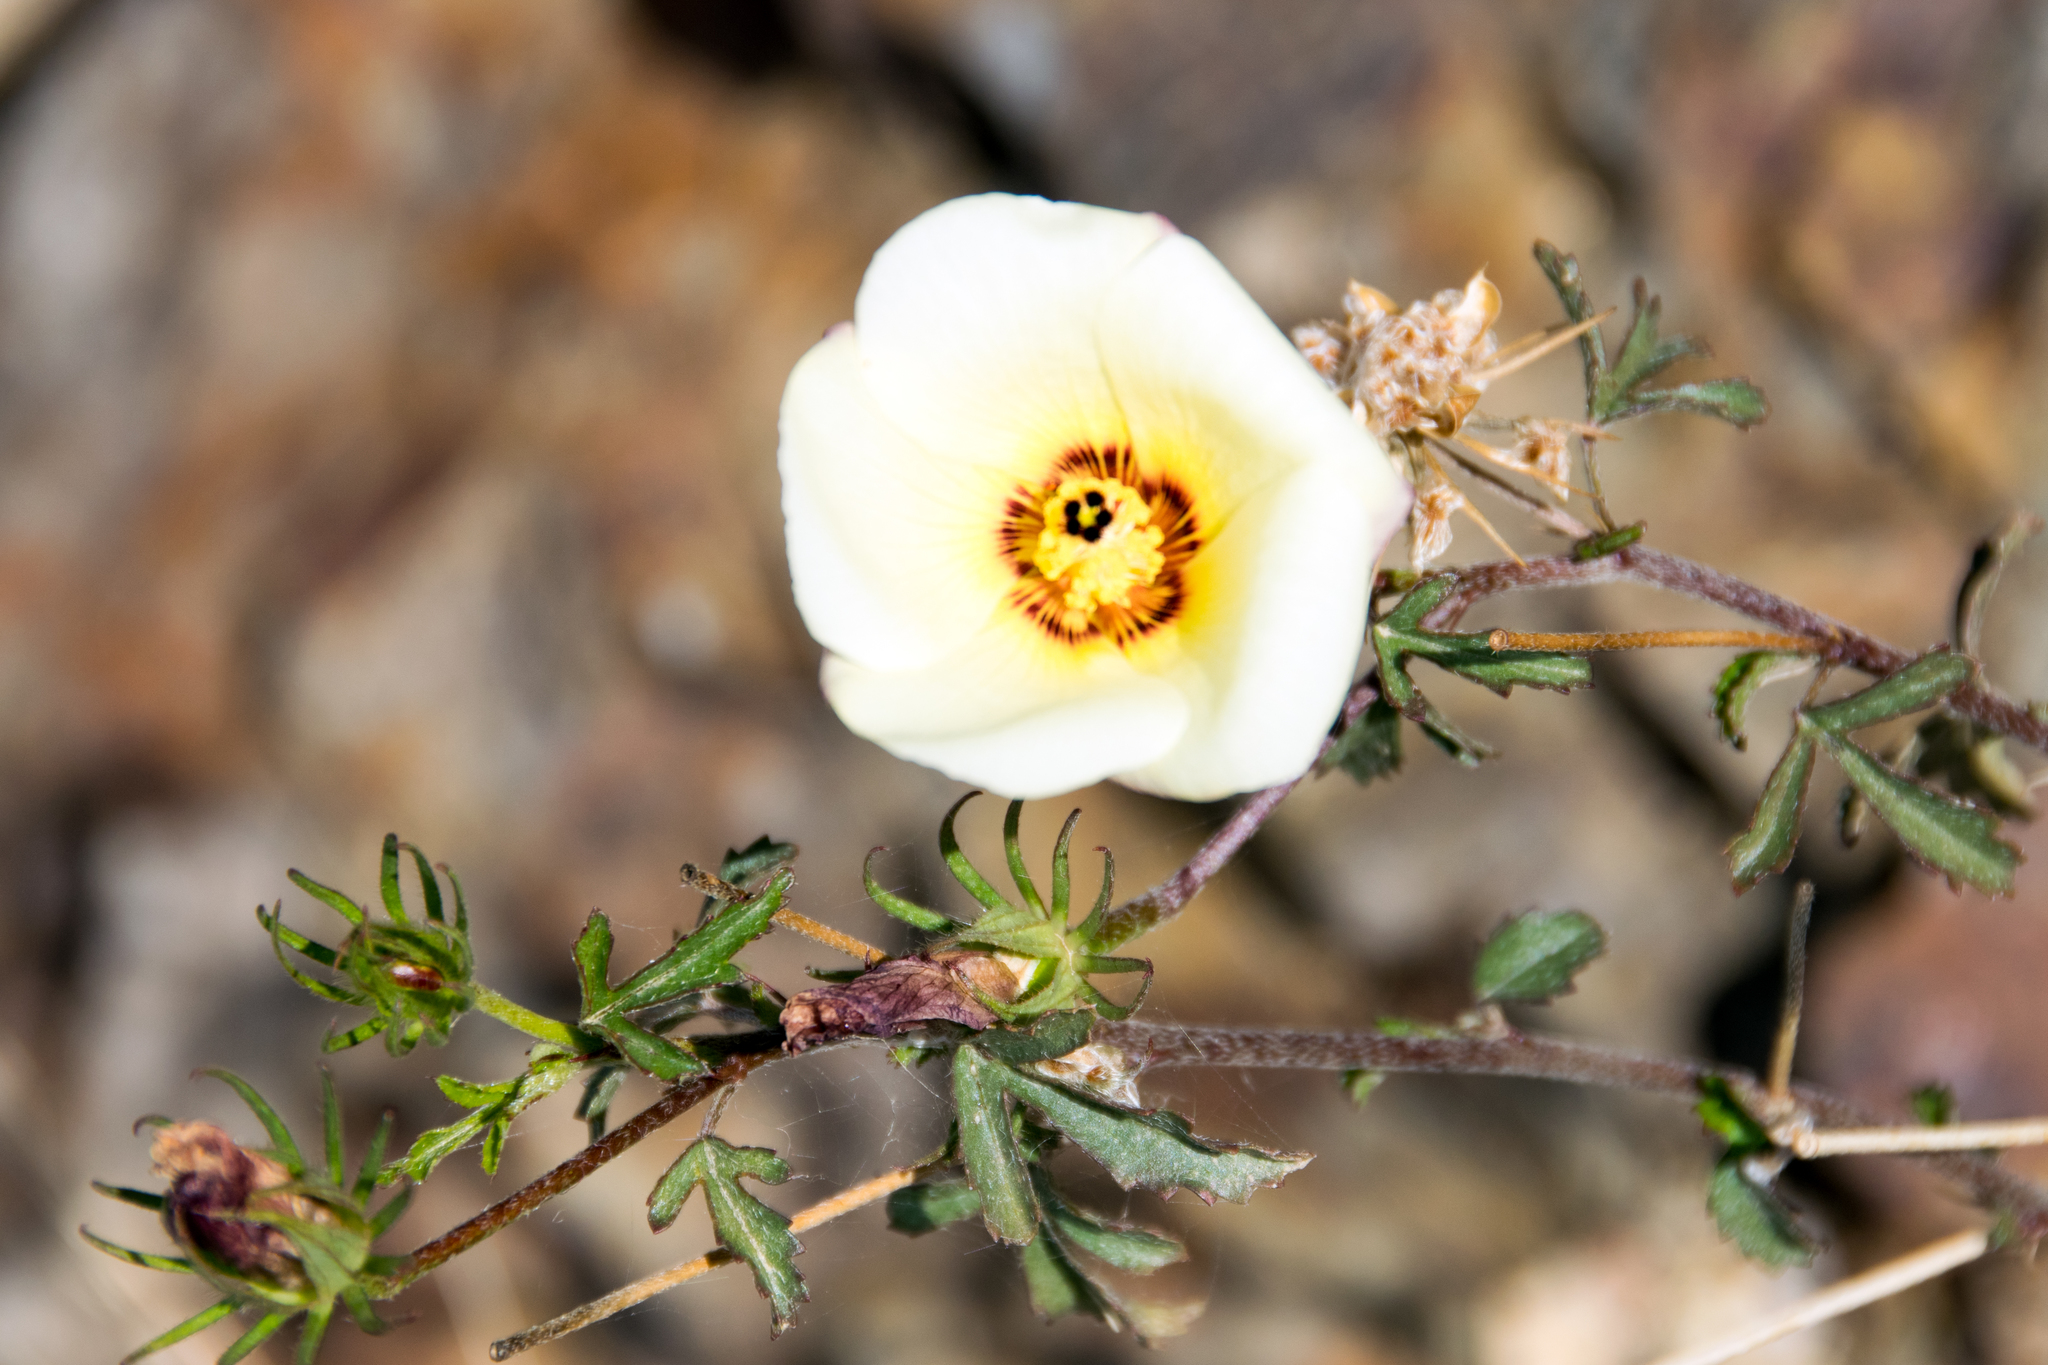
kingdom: Plantae
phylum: Tracheophyta
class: Magnoliopsida
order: Malvales
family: Malvaceae
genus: Hibiscus
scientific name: Hibiscus coulteri
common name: Desert rose-mallow
